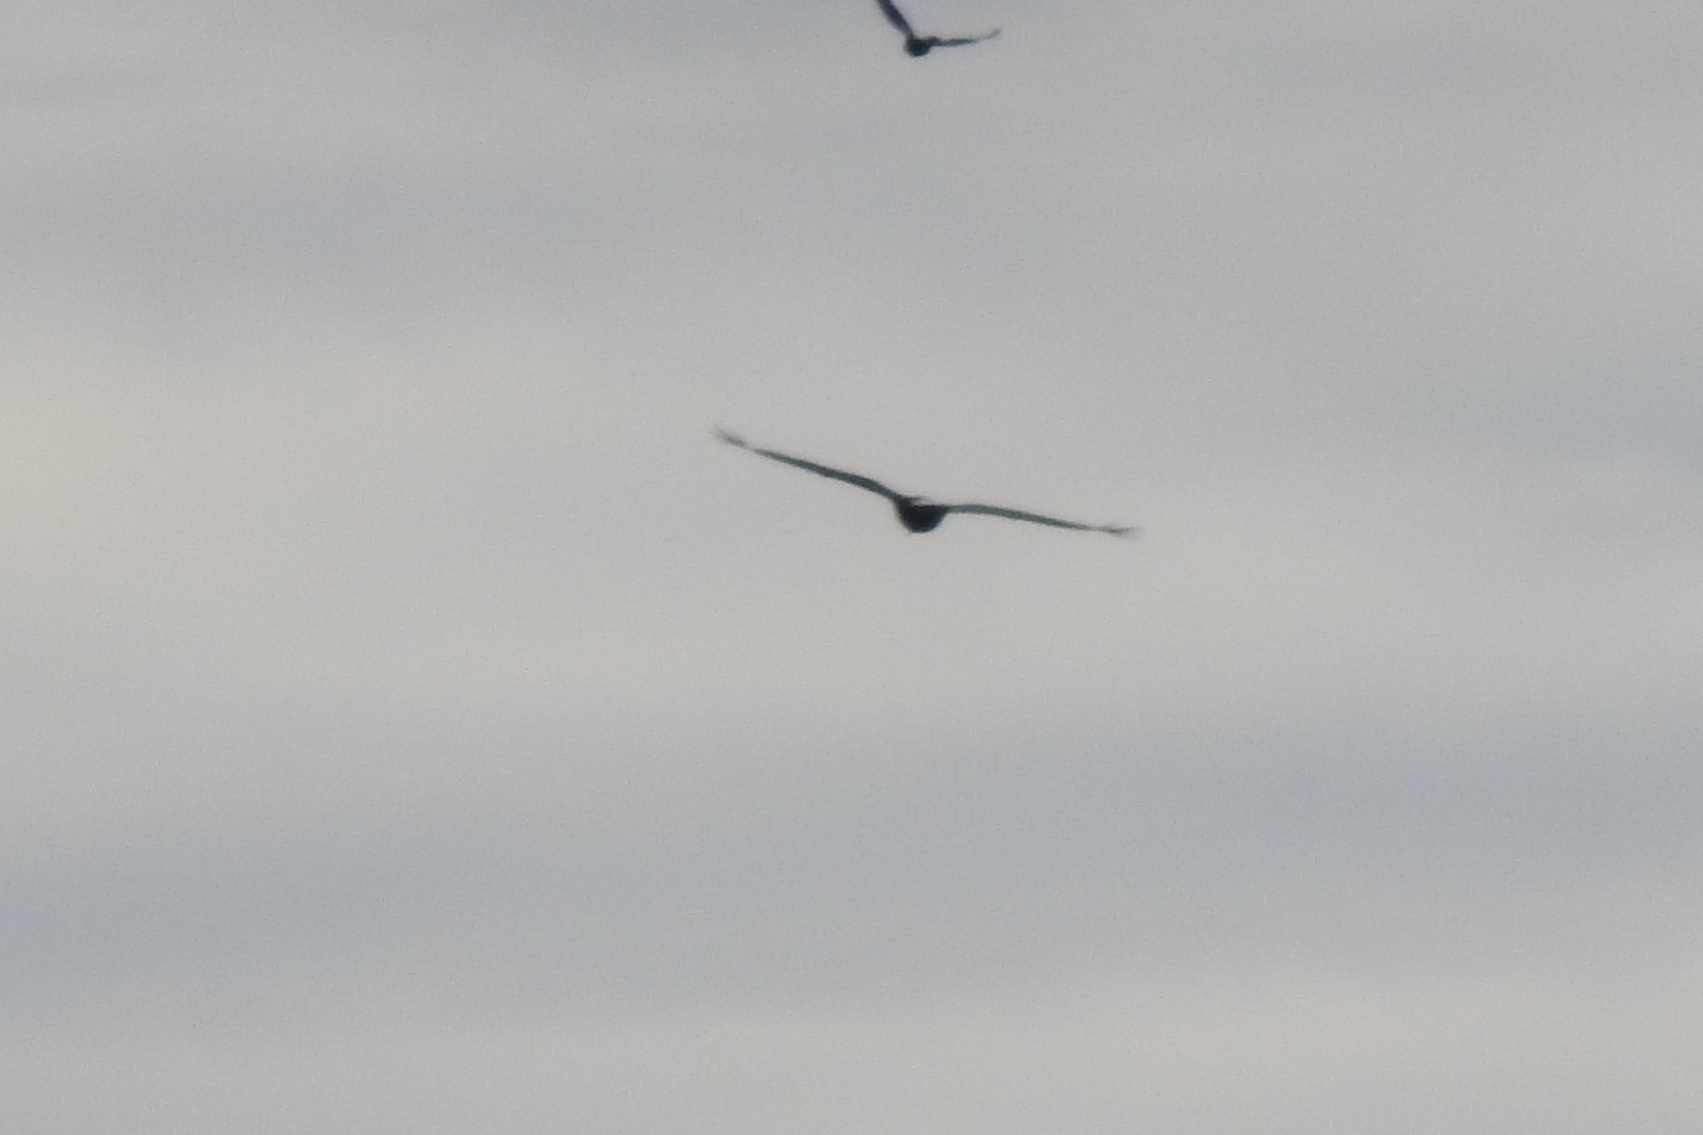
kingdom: Animalia
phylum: Chordata
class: Aves
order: Accipitriformes
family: Accipitridae
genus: Haliaeetus
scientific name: Haliaeetus leucocephalus
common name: Bald eagle
